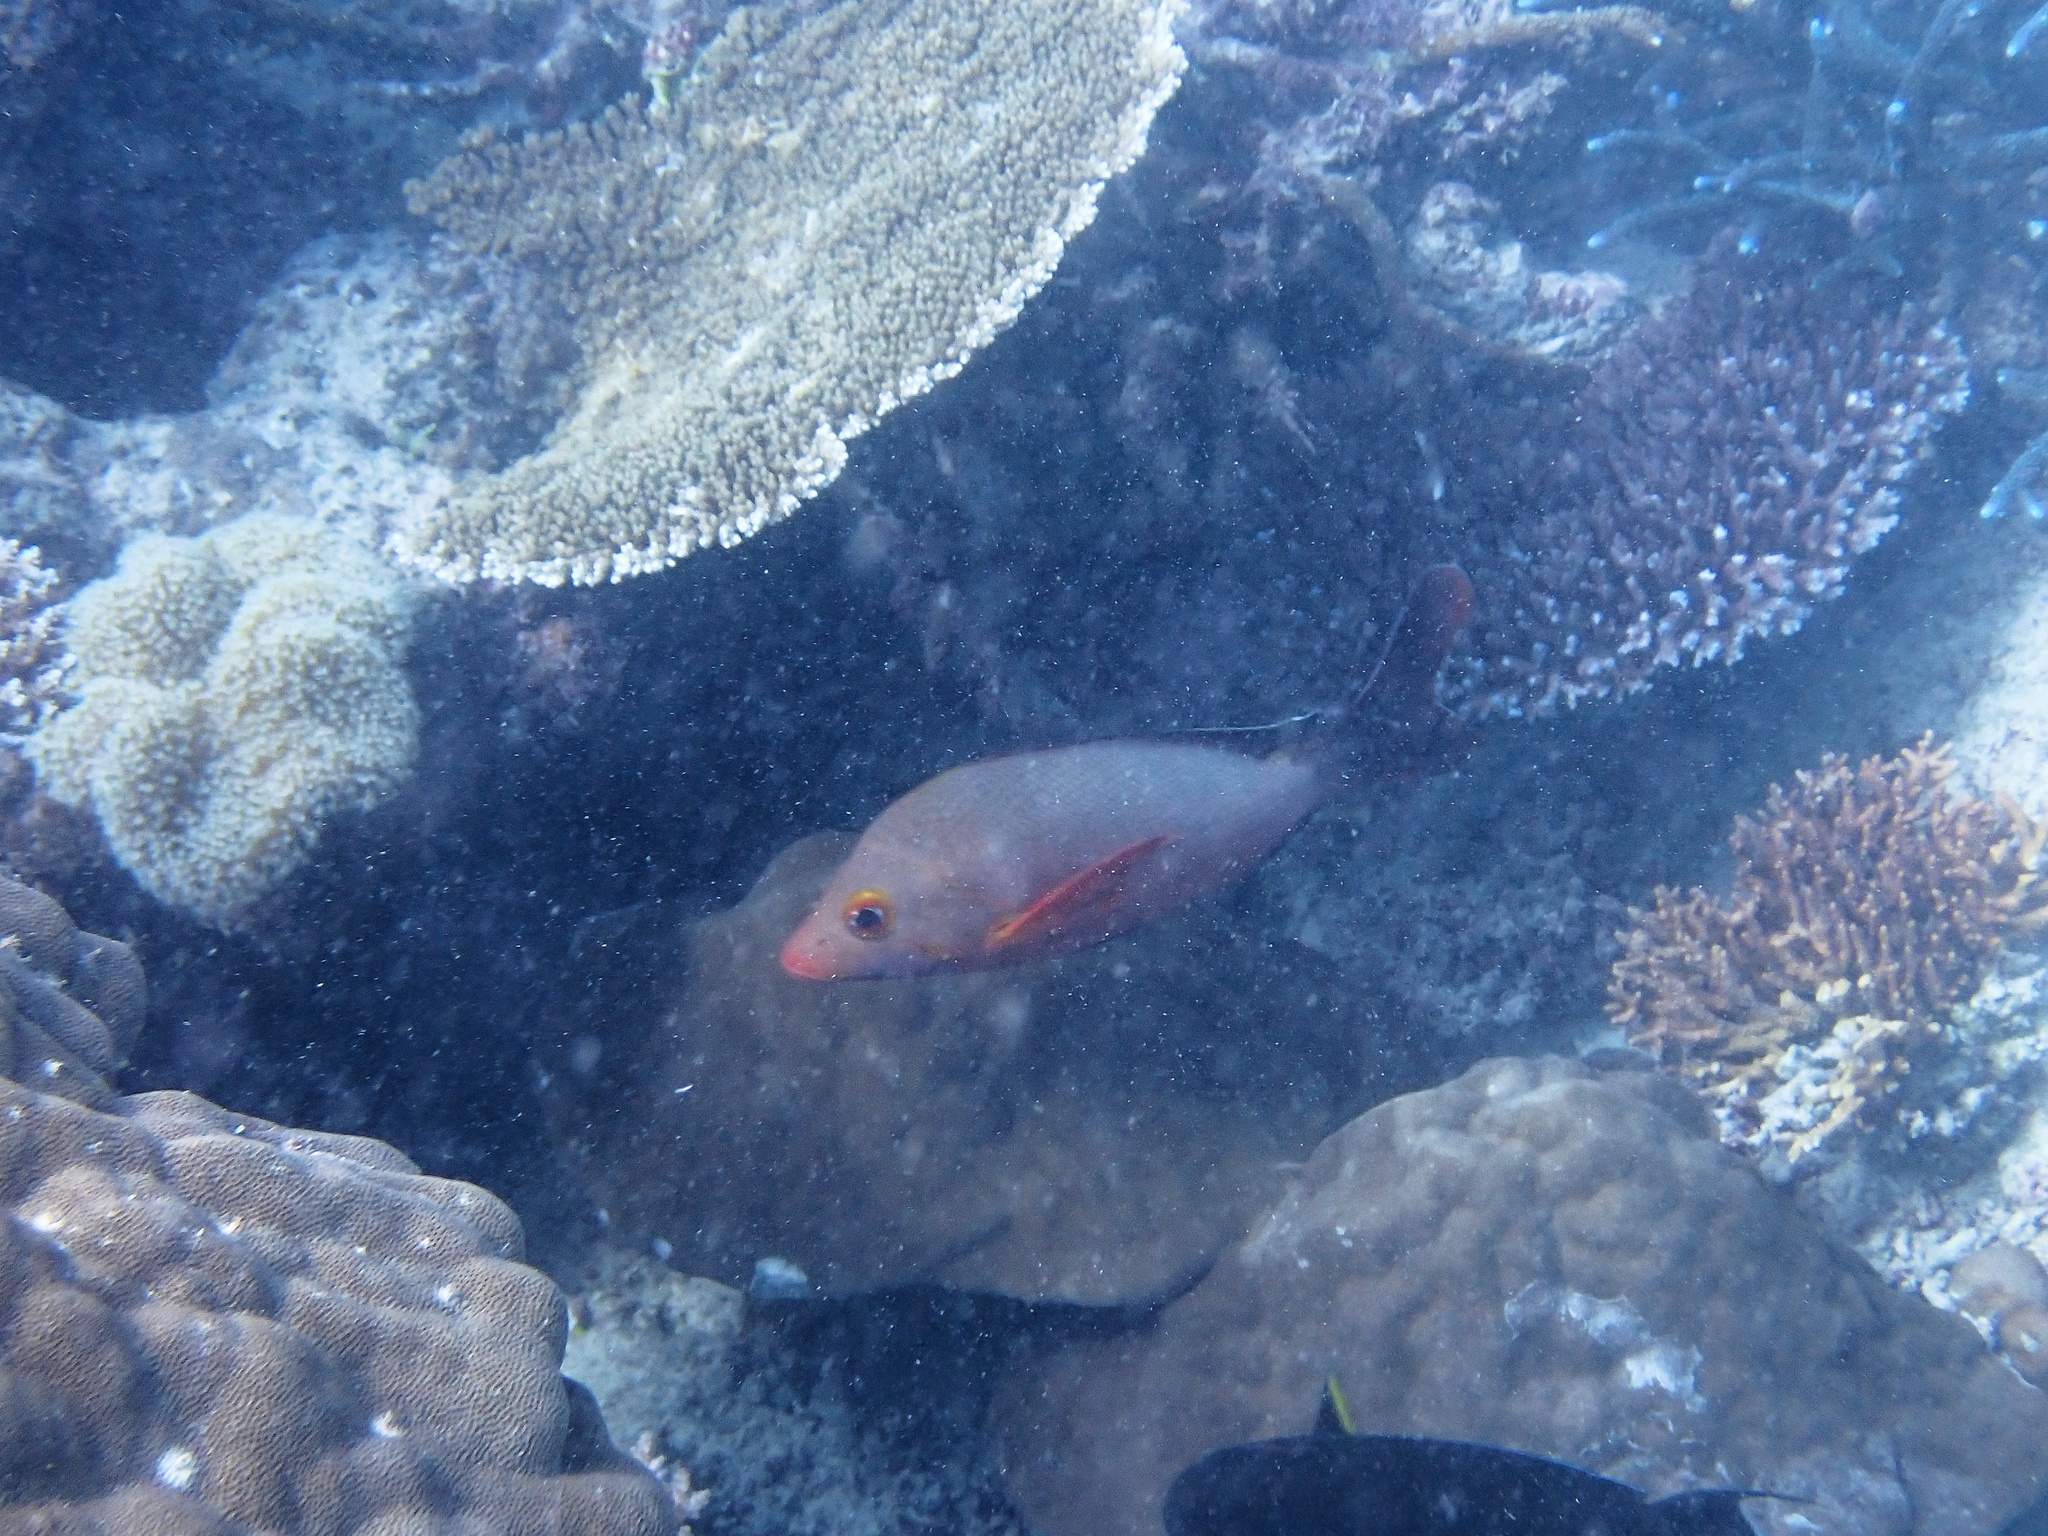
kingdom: Animalia
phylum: Chordata
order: Perciformes
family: Lutjanidae
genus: Lutjanus
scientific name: Lutjanus gibbus
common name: Humpback snapper
